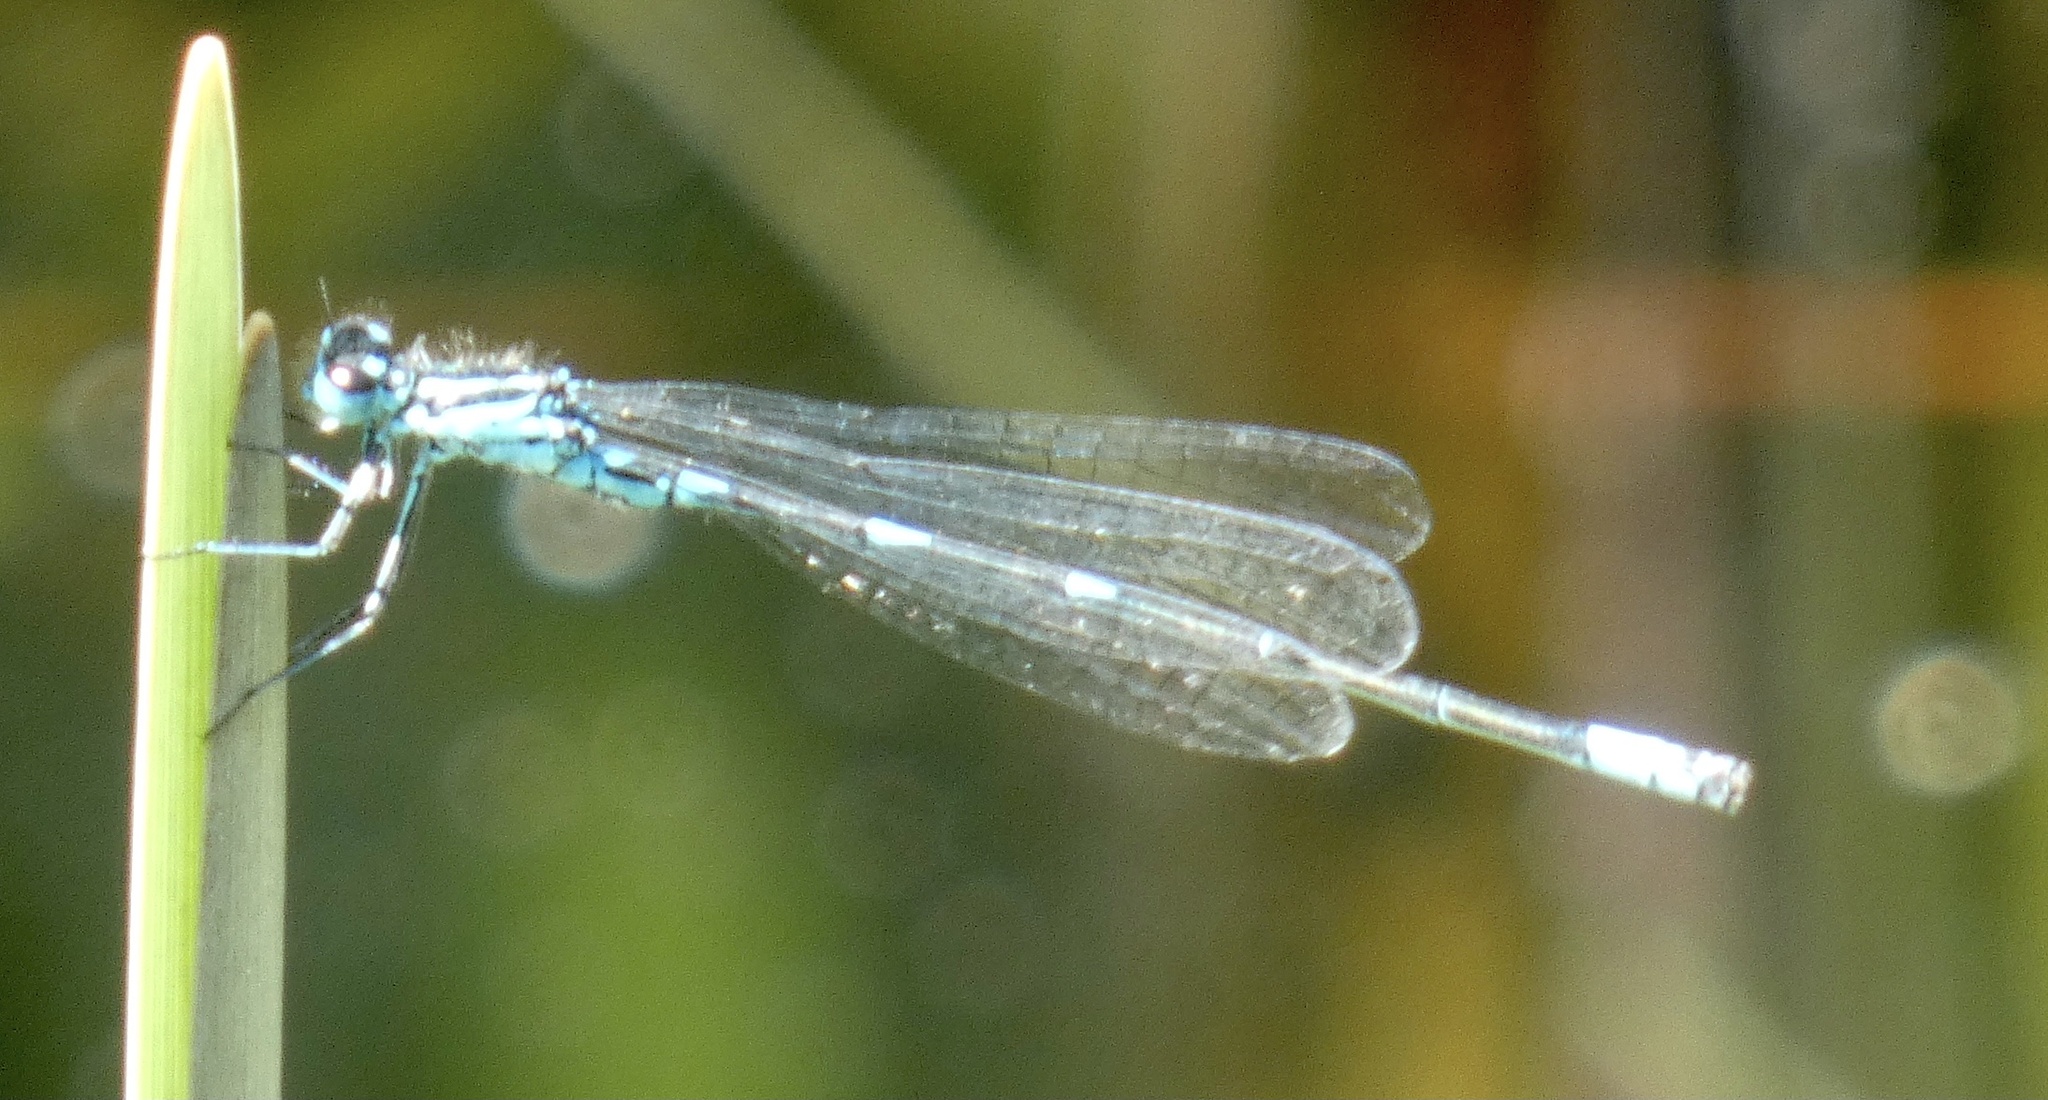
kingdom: Animalia
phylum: Arthropoda
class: Insecta
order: Odonata
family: Coenagrionidae
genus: Coenagrion
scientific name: Coenagrion pulchellum
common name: Variable bluet
